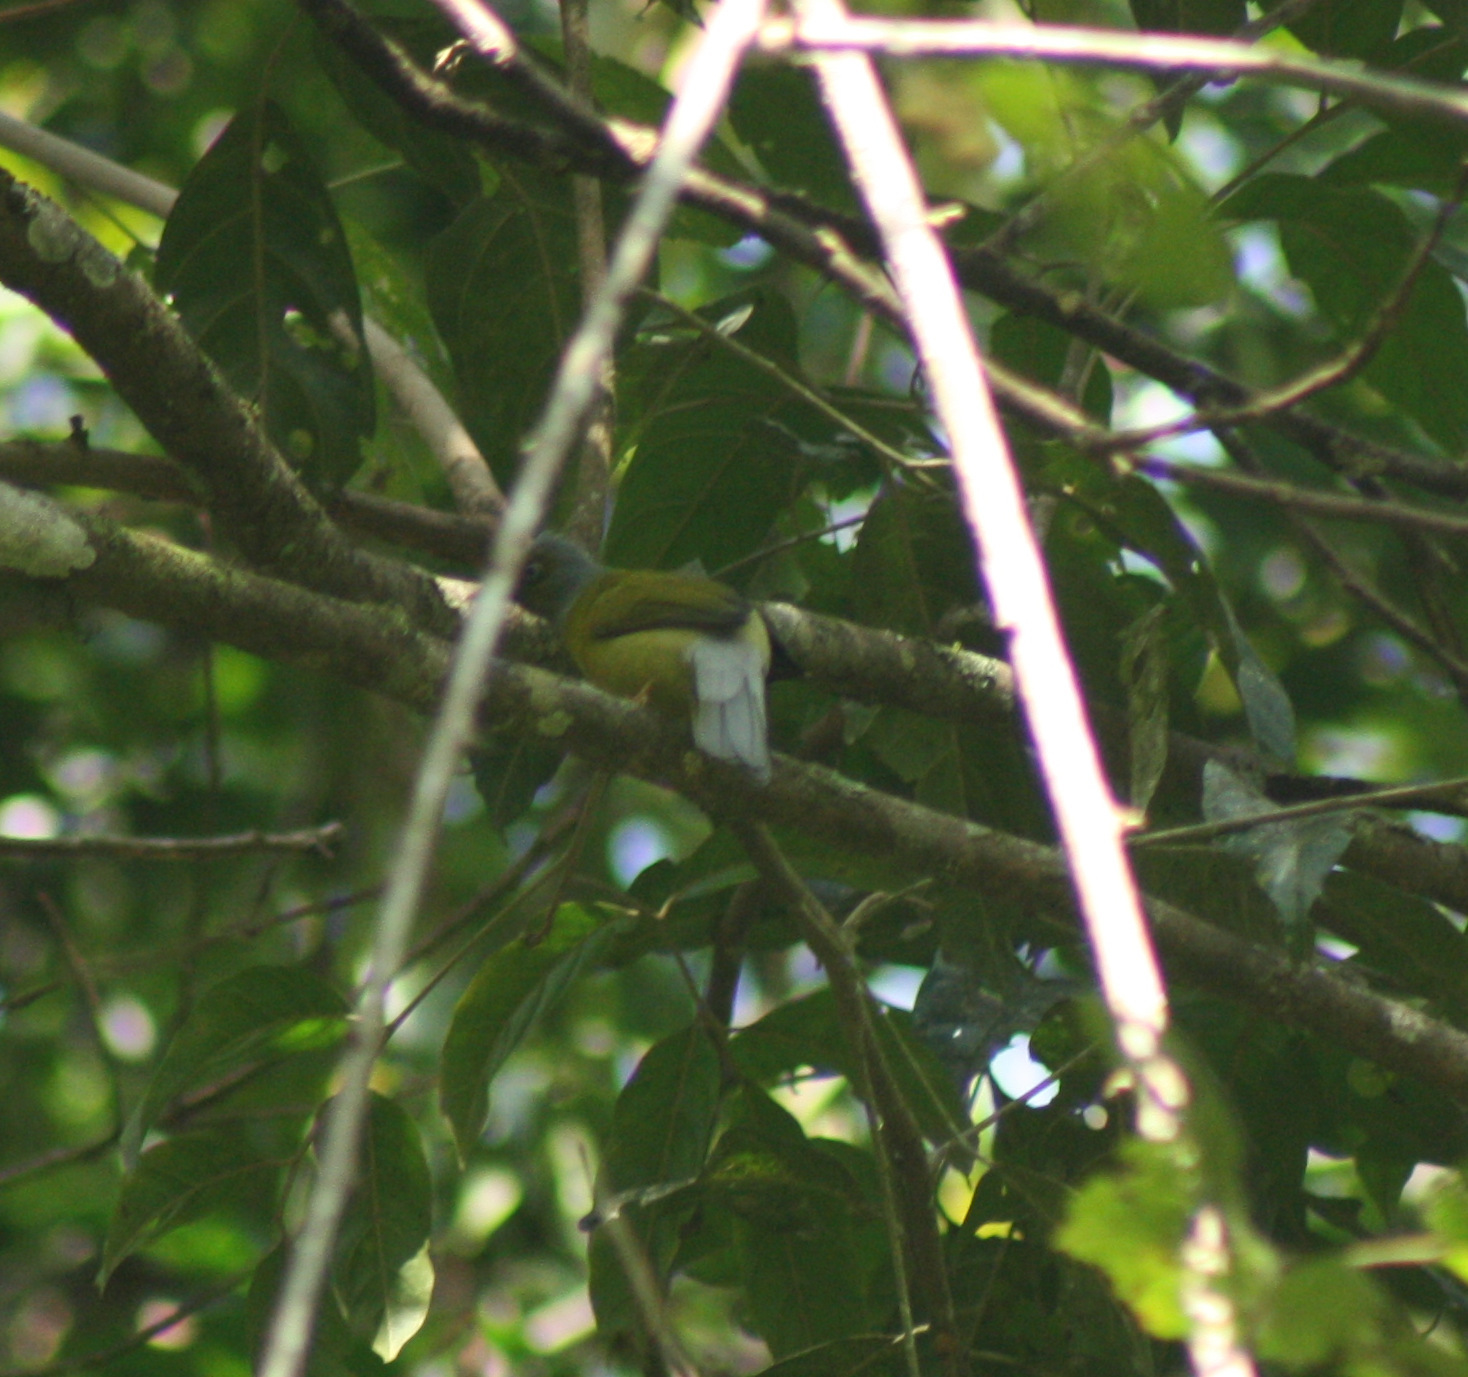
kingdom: Animalia
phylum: Chordata
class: Aves
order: Passeriformes
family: Pycnonotidae
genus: Microtarsus
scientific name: Microtarsus
